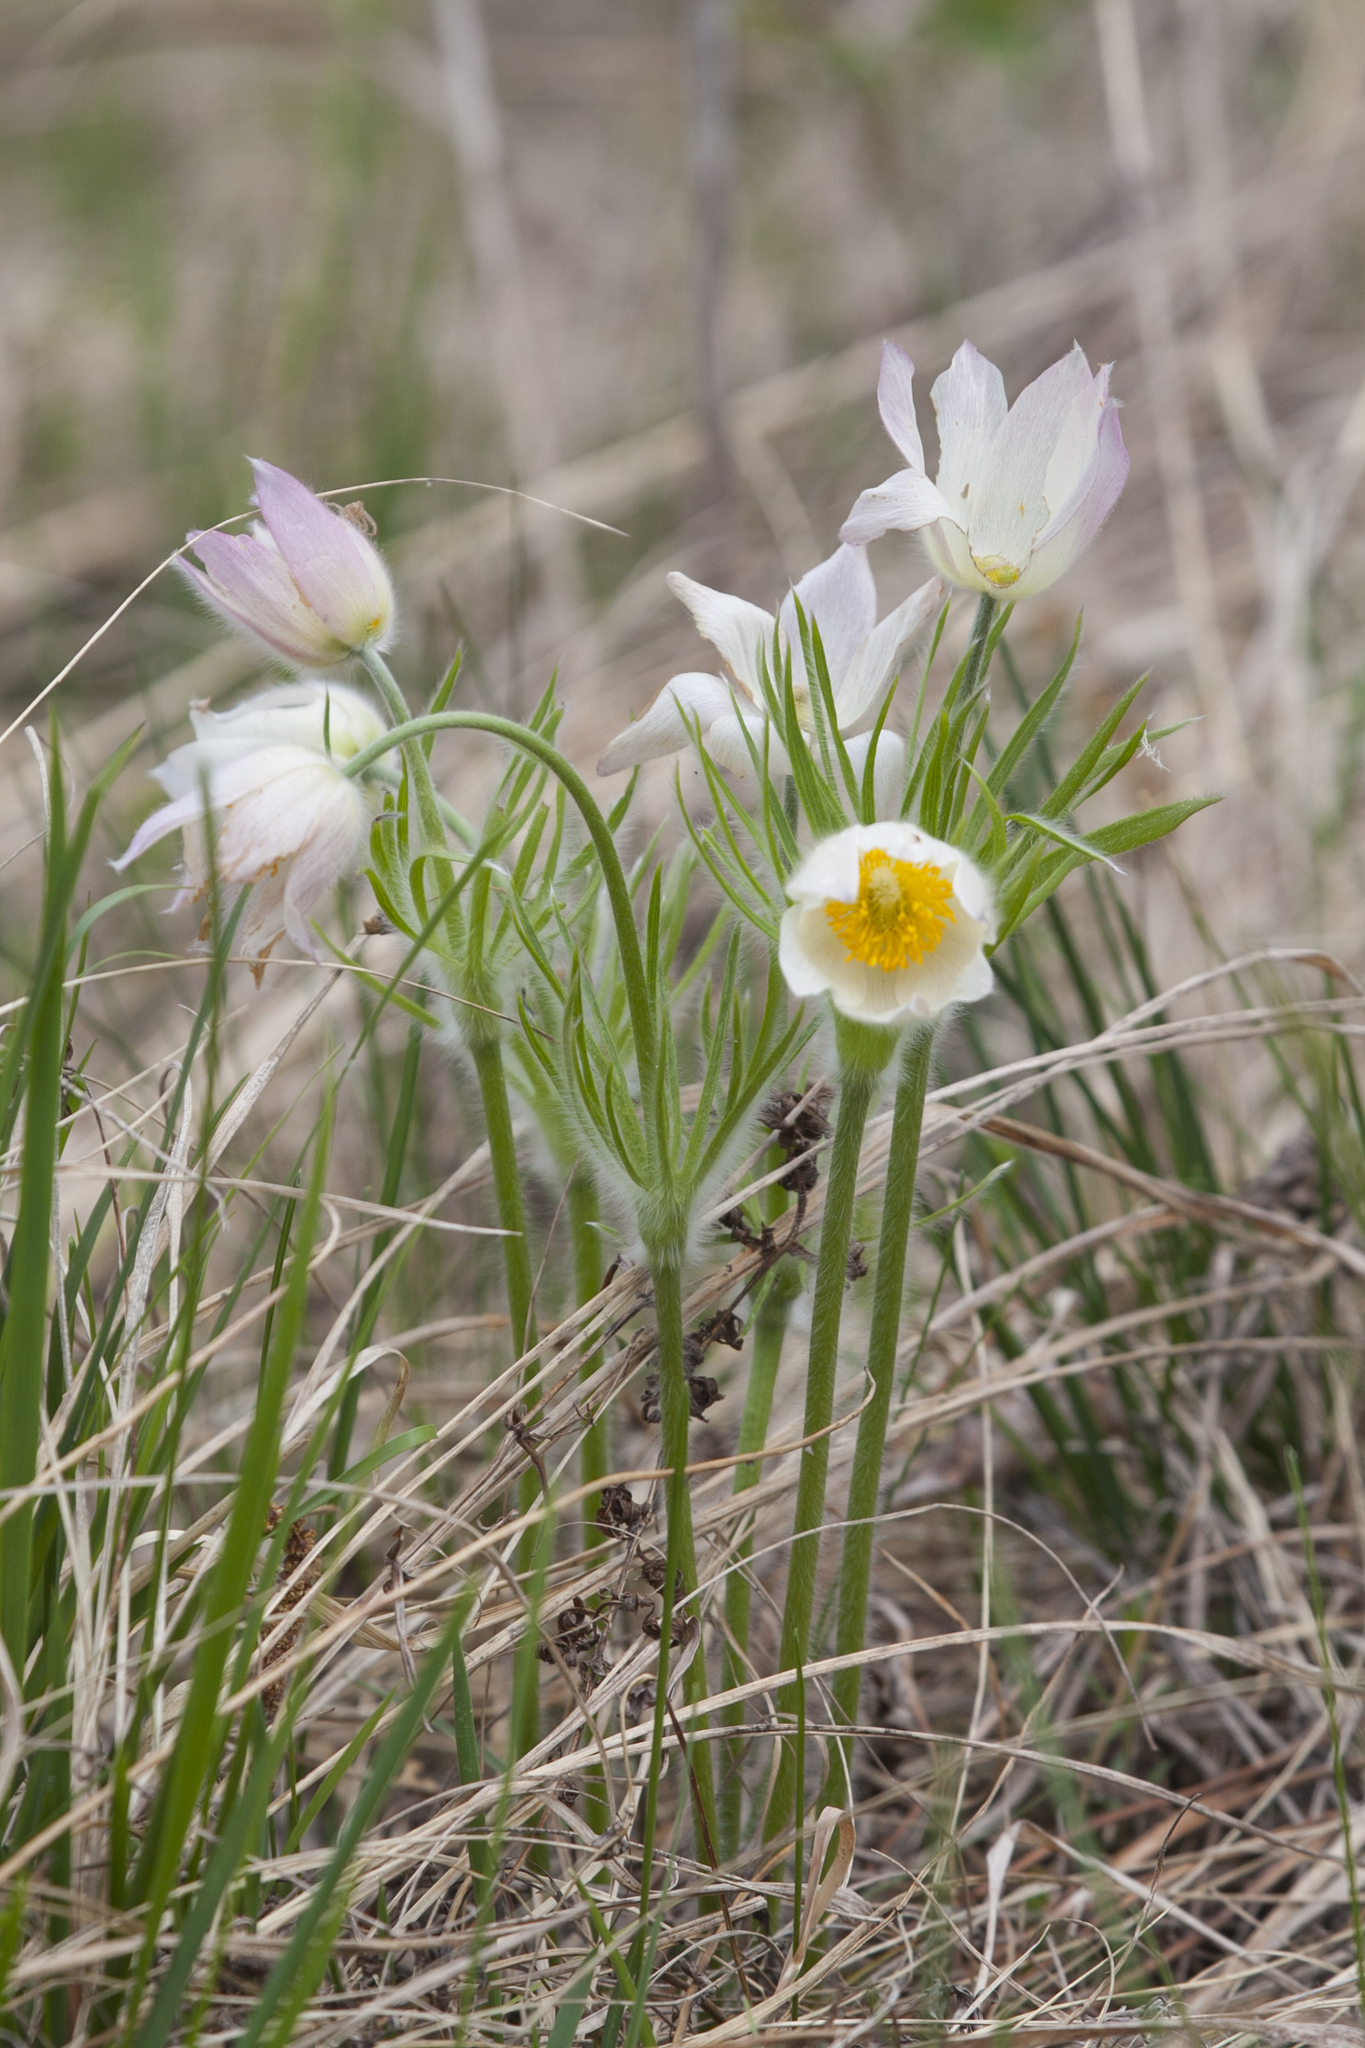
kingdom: Plantae
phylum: Tracheophyta
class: Magnoliopsida
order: Ranunculales
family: Ranunculaceae
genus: Pulsatilla
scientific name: Pulsatilla patens
